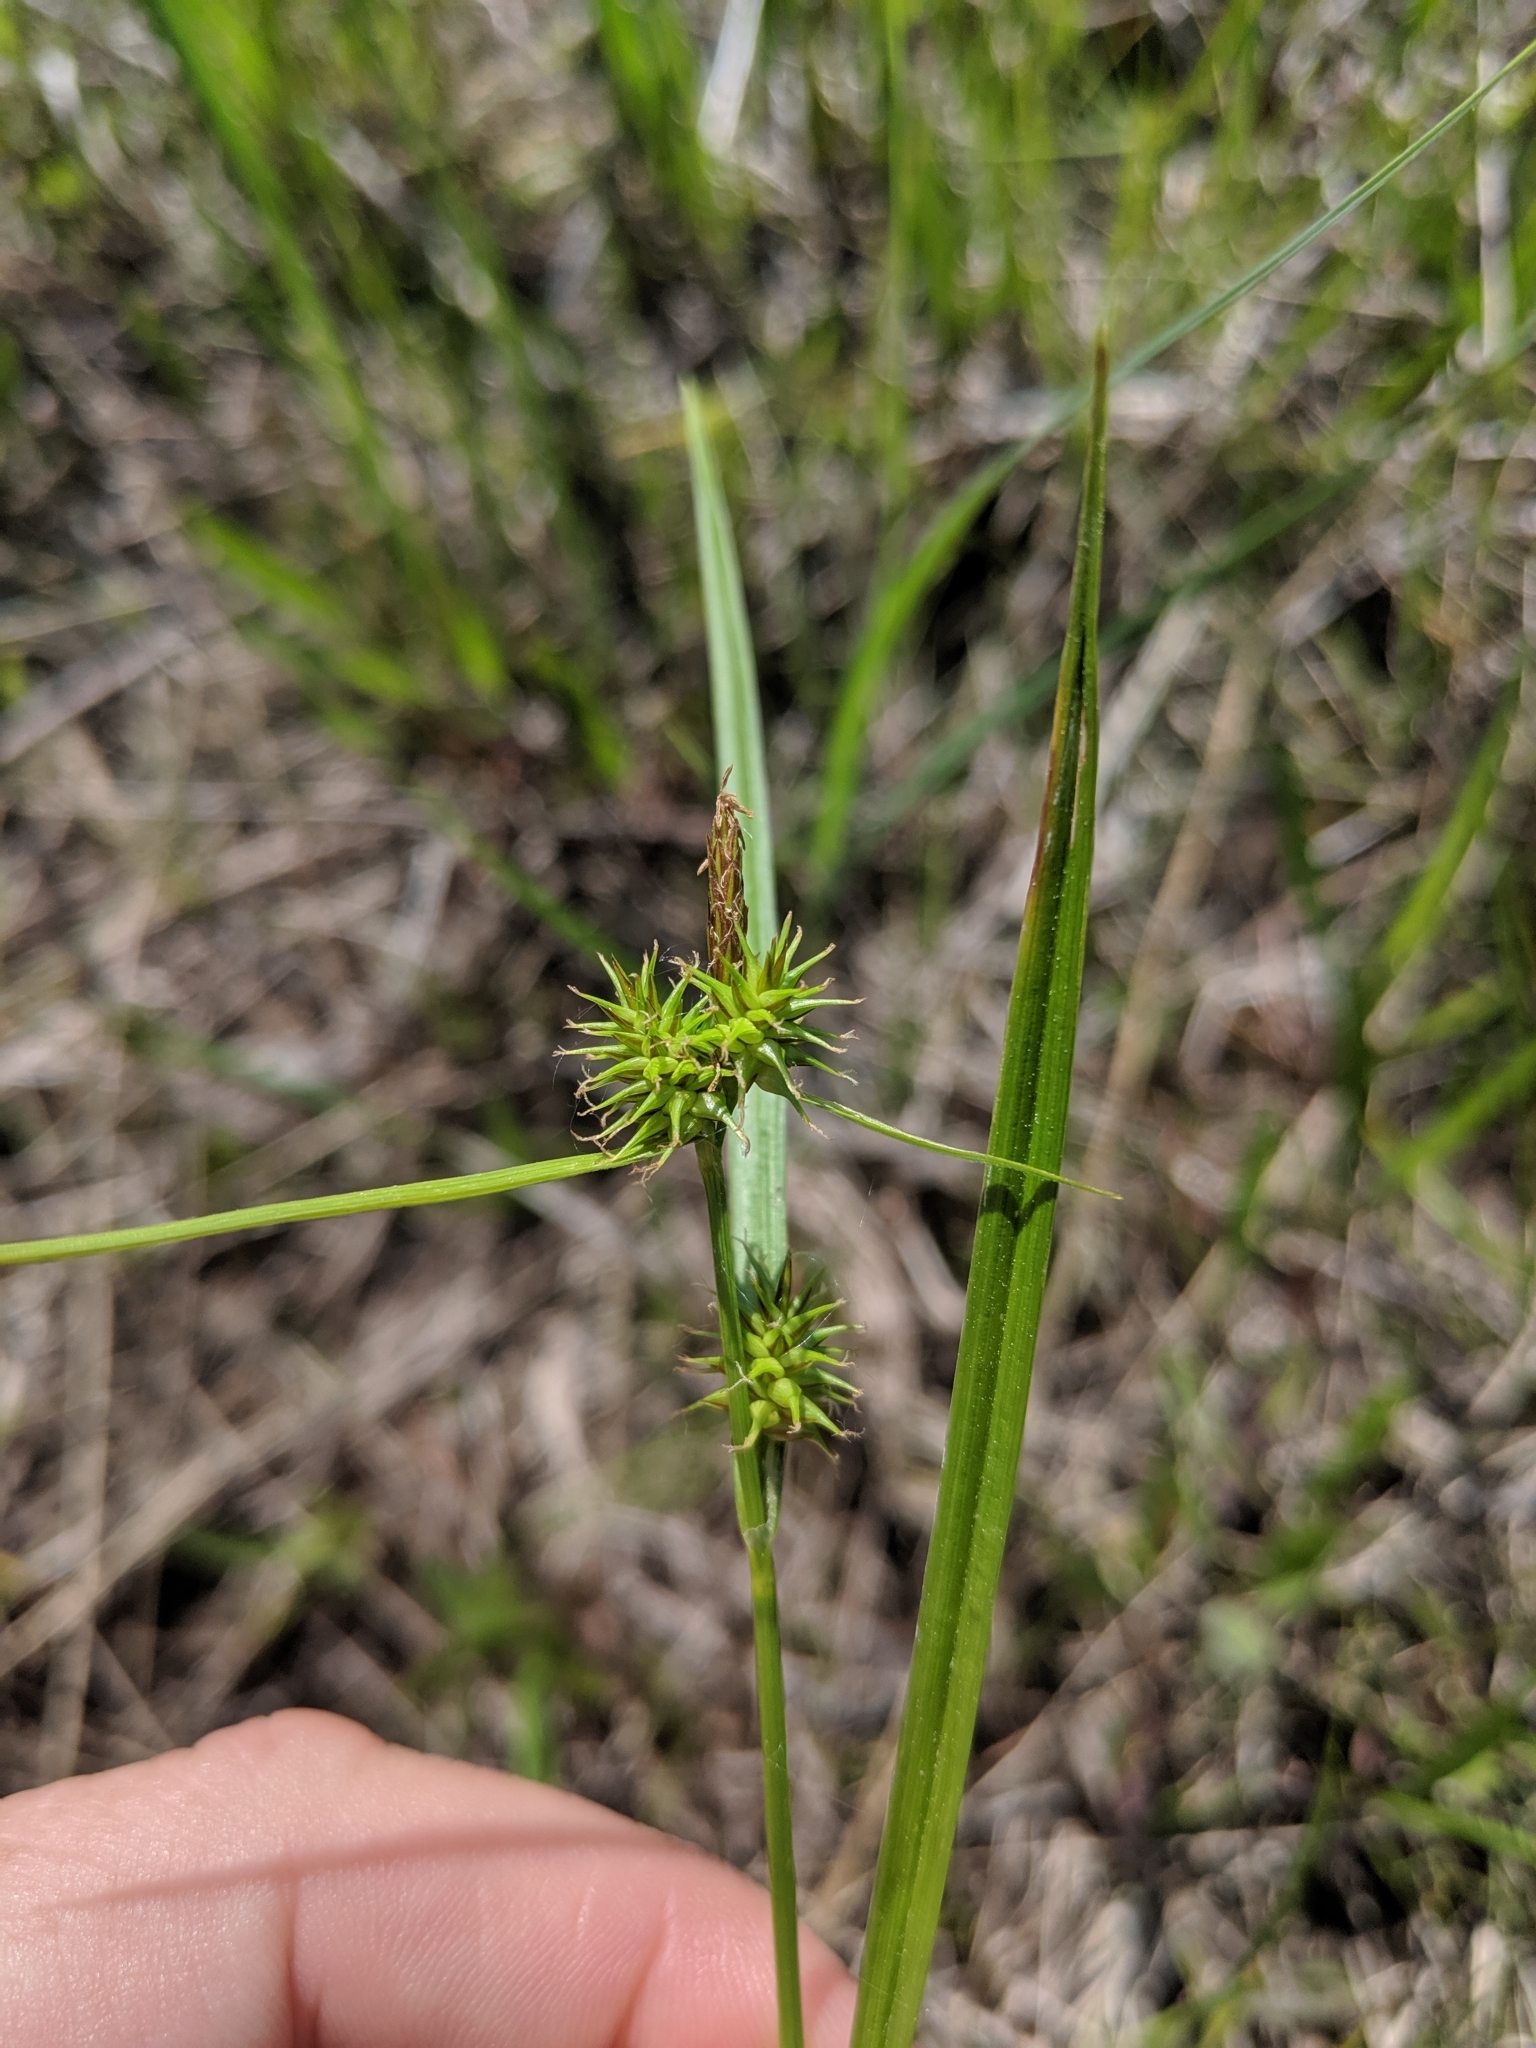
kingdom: Plantae
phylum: Tracheophyta
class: Liliopsida
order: Poales
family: Cyperaceae
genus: Carex
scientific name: Carex flava
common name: Large yellow-sedge
